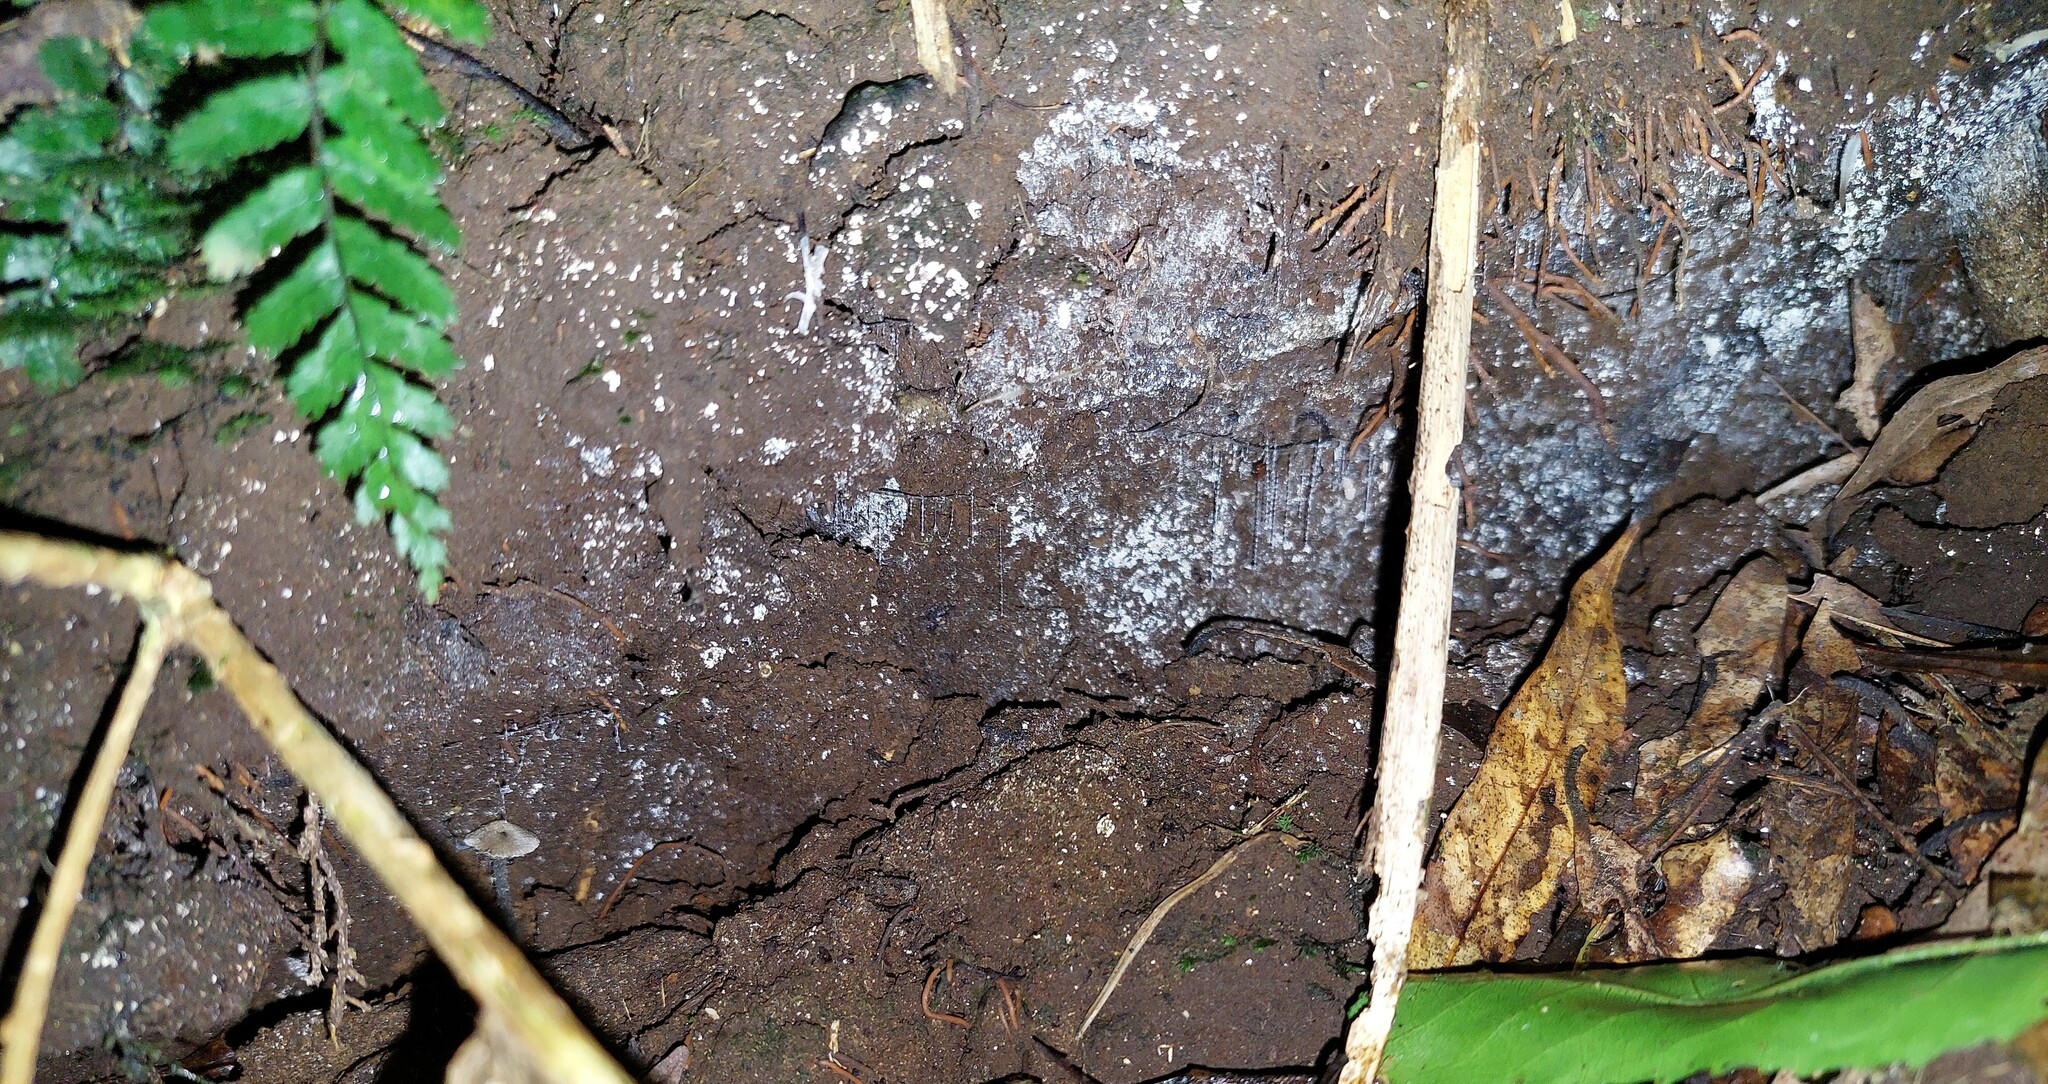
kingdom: Animalia
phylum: Arthropoda
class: Insecta
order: Diptera
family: Keroplatidae
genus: Arachnocampa
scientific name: Arachnocampa luminosa
